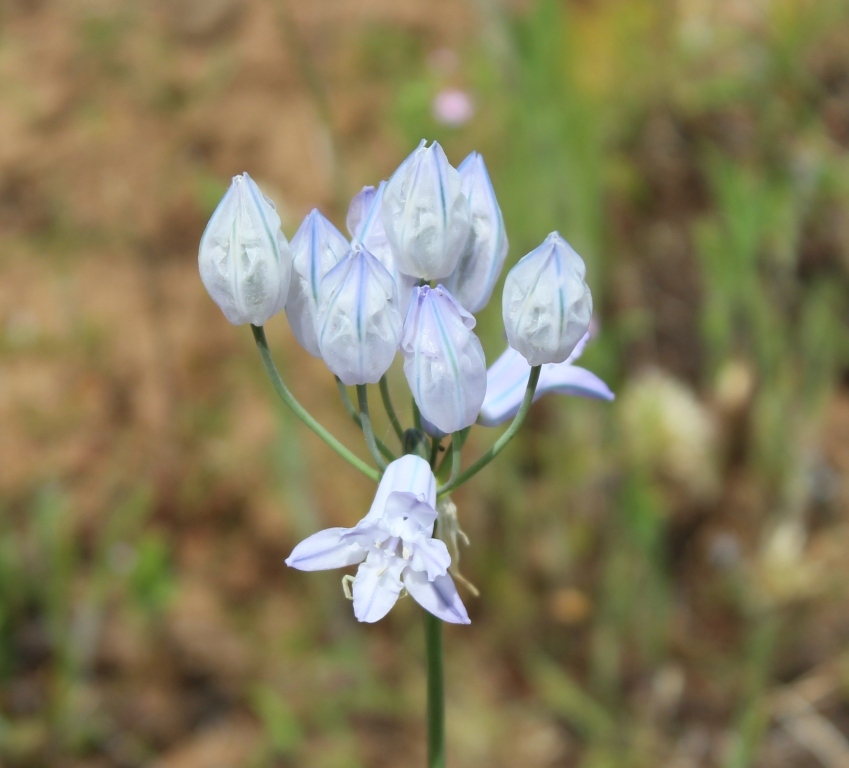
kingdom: Plantae
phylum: Tracheophyta
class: Liliopsida
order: Asparagales
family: Asparagaceae
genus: Triteleia
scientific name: Triteleia grandiflora
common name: Wild hyacinth
